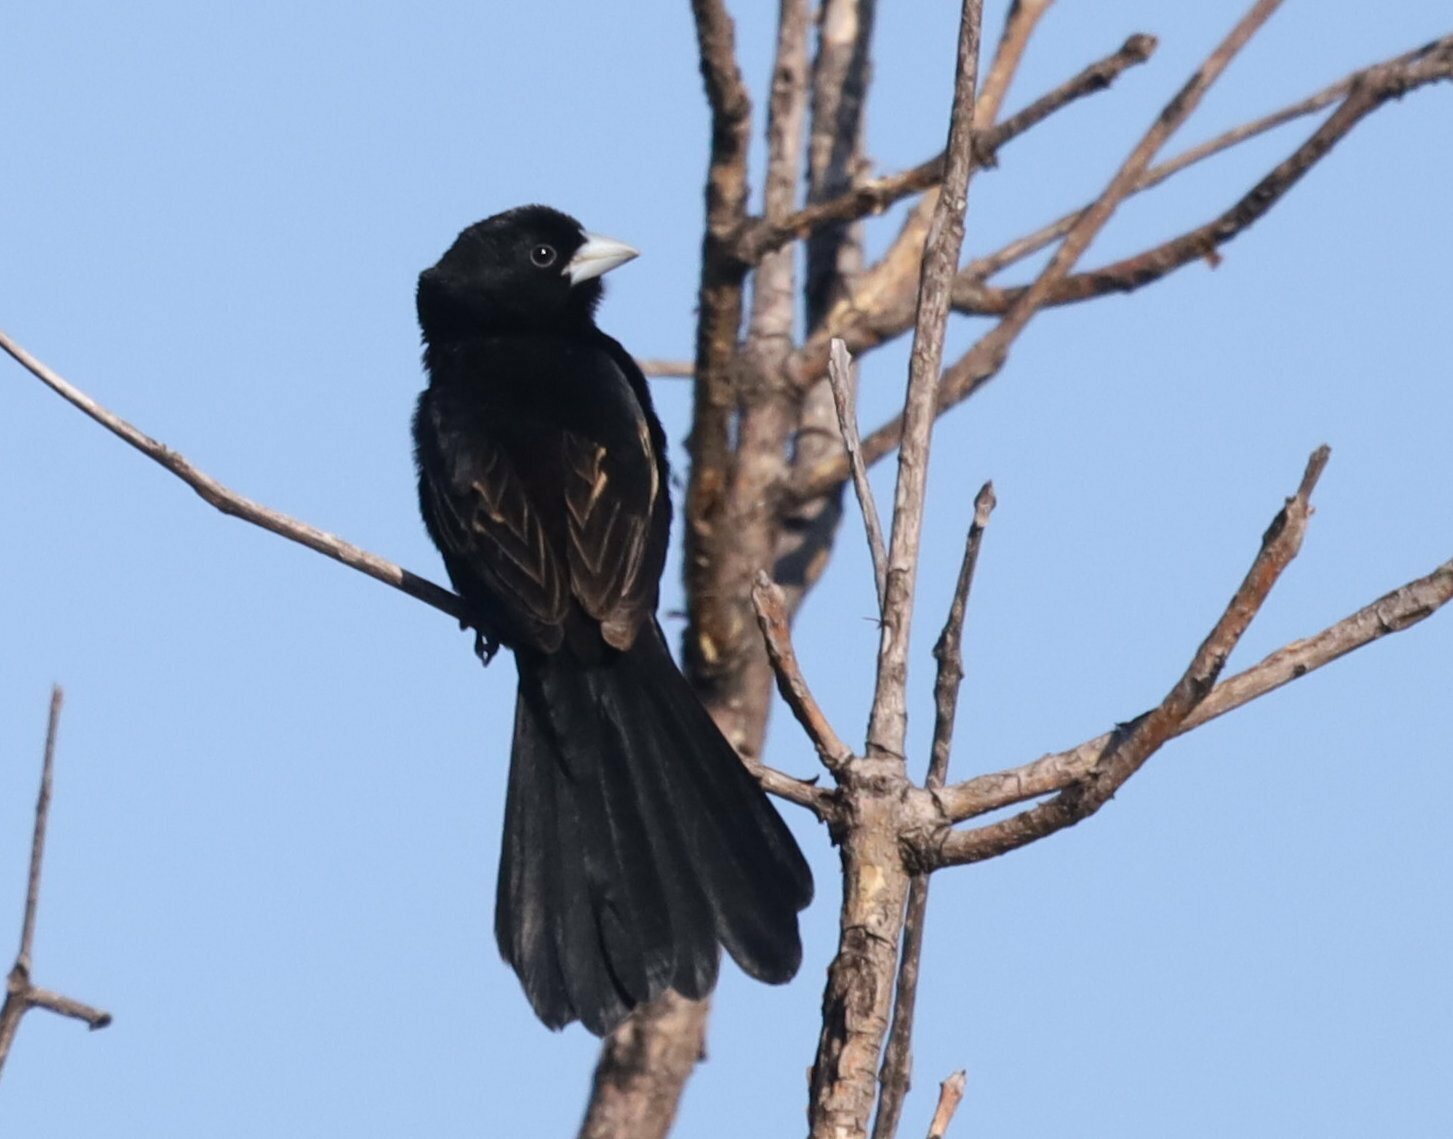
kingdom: Animalia
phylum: Chordata
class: Aves
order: Passeriformes
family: Ploceidae
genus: Euplectes
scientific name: Euplectes albonotatus
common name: White-winged widowbird
